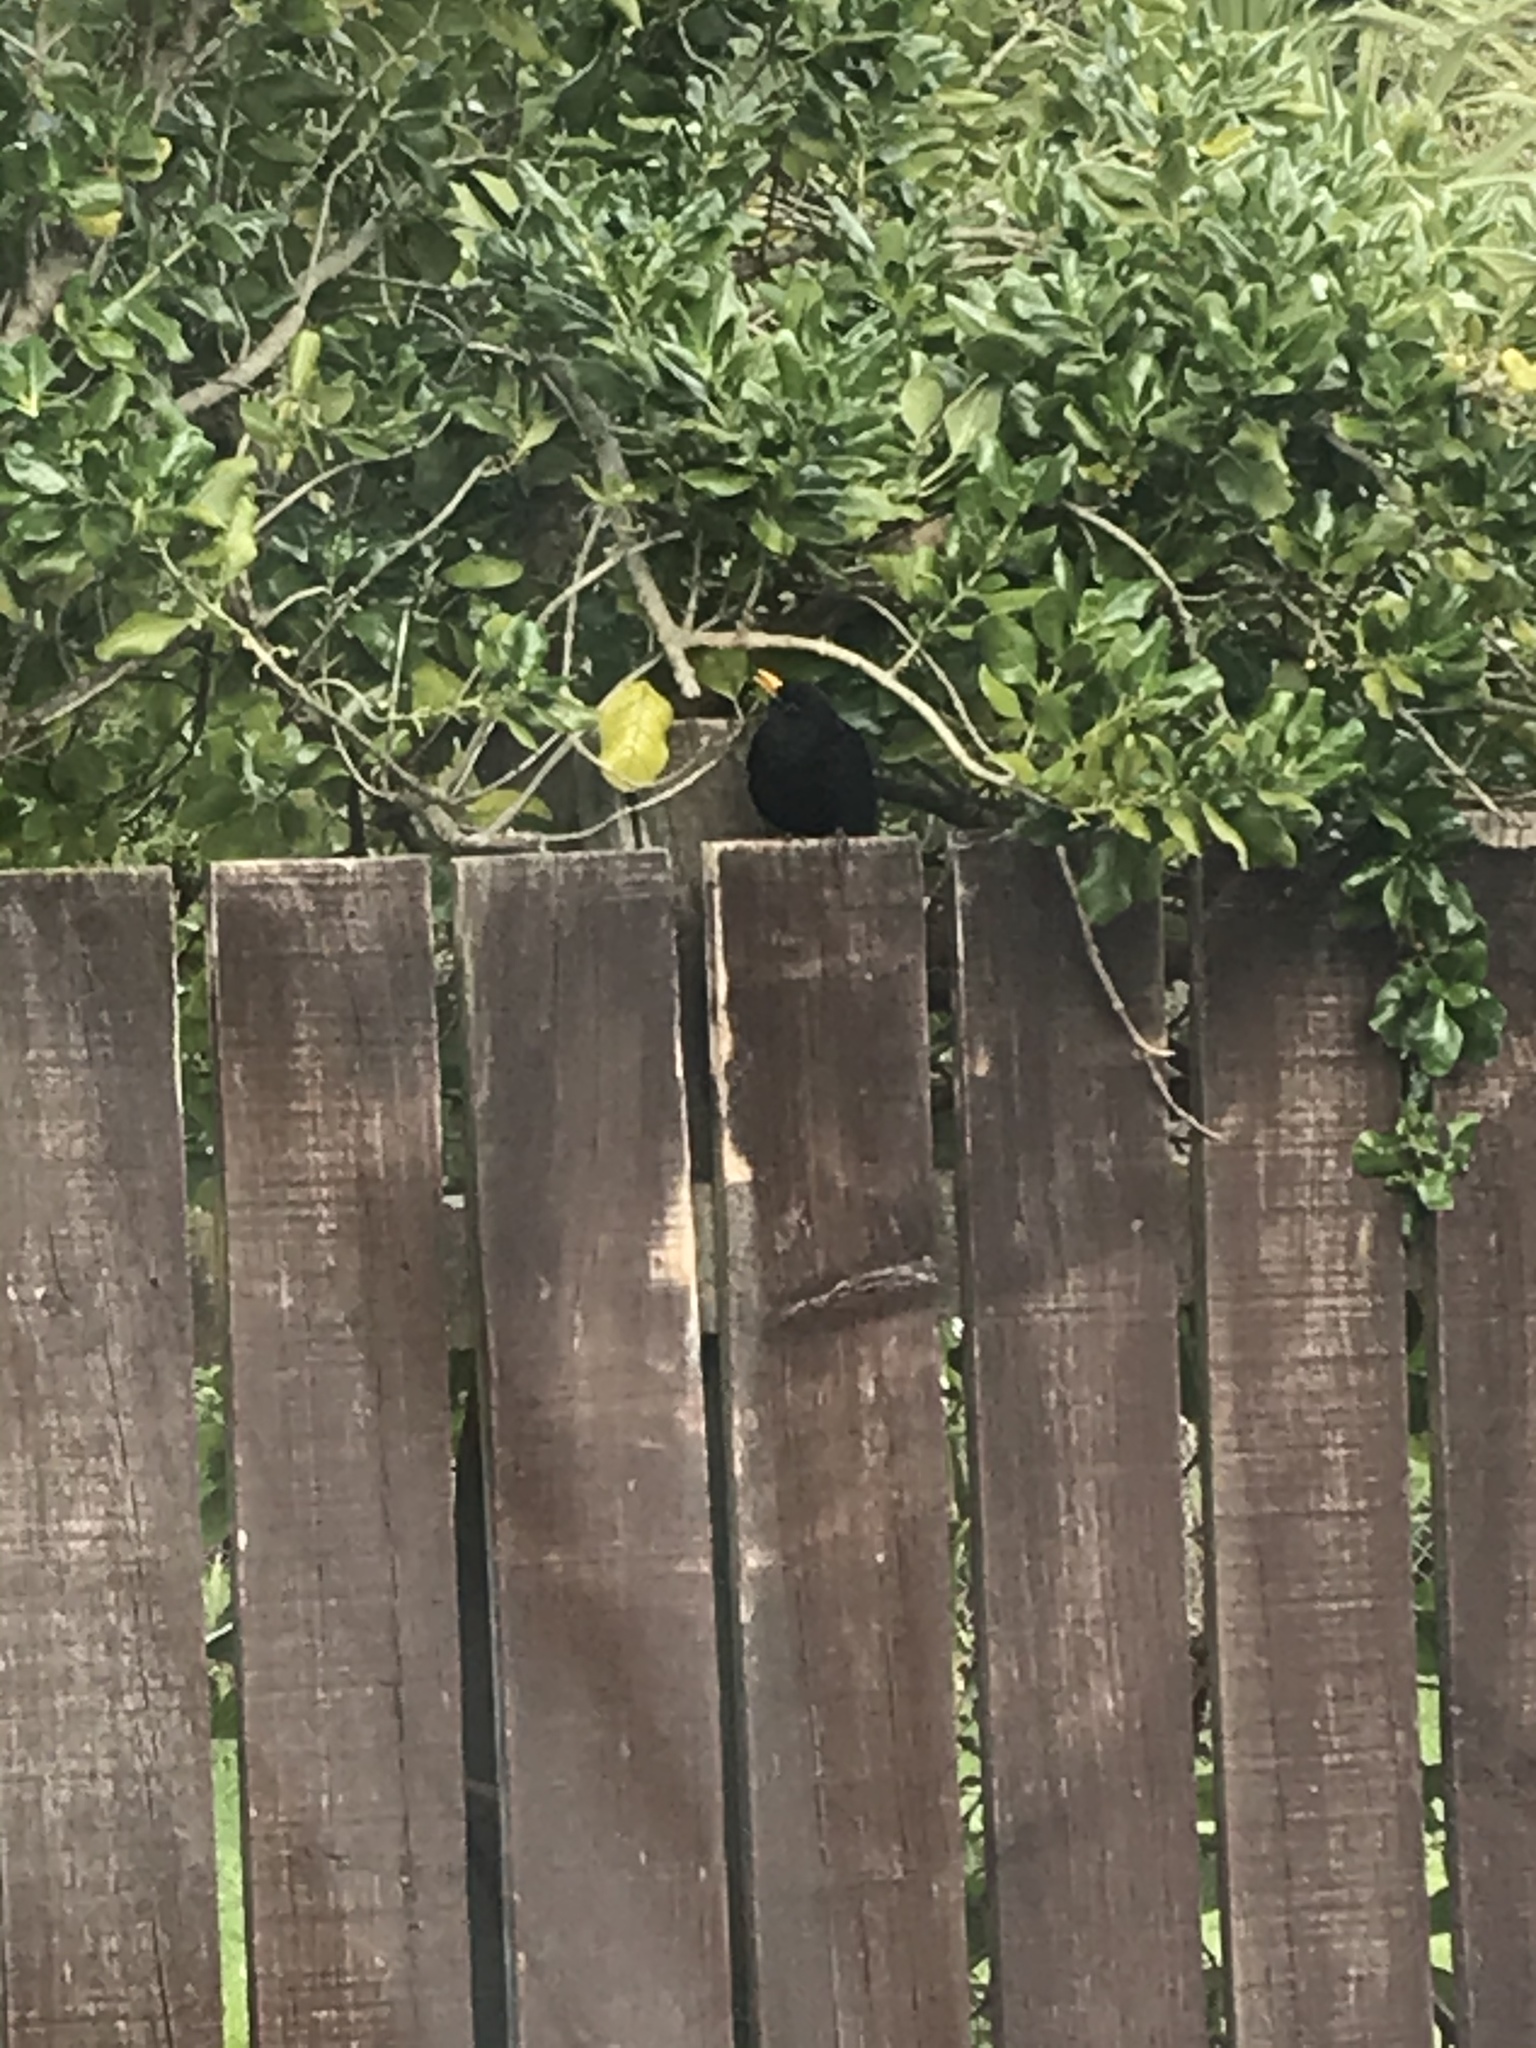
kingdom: Animalia
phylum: Chordata
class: Aves
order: Passeriformes
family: Turdidae
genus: Turdus
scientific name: Turdus merula
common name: Common blackbird
